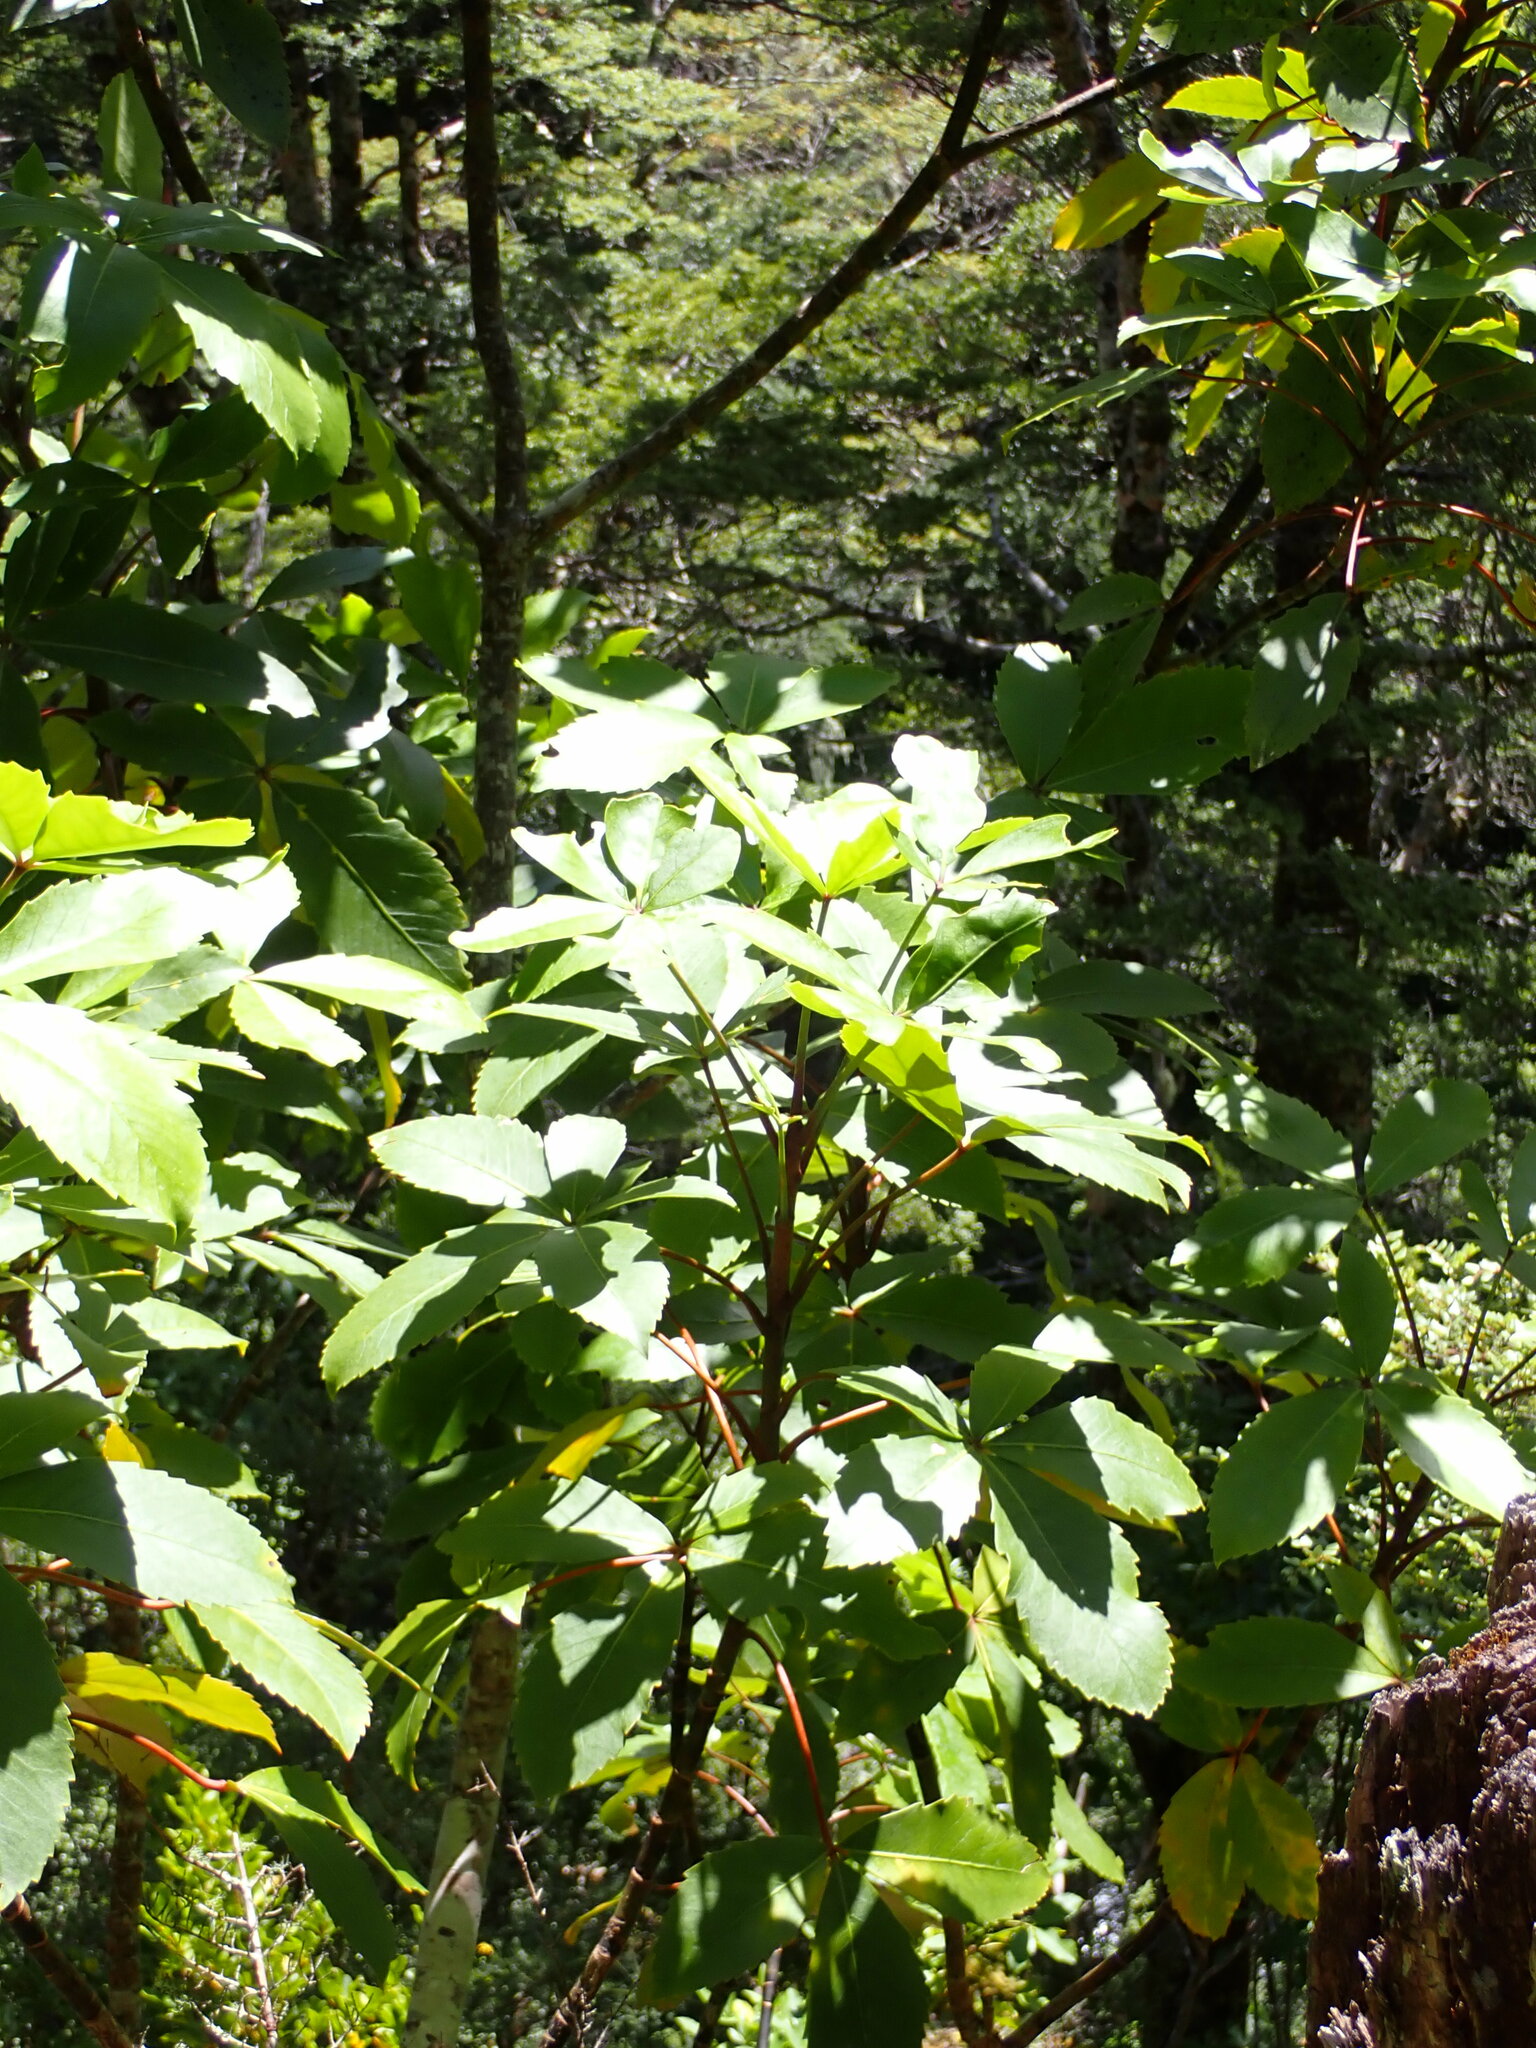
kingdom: Plantae
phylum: Tracheophyta
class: Magnoliopsida
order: Apiales
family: Araliaceae
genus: Neopanax
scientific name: Neopanax colensoi
